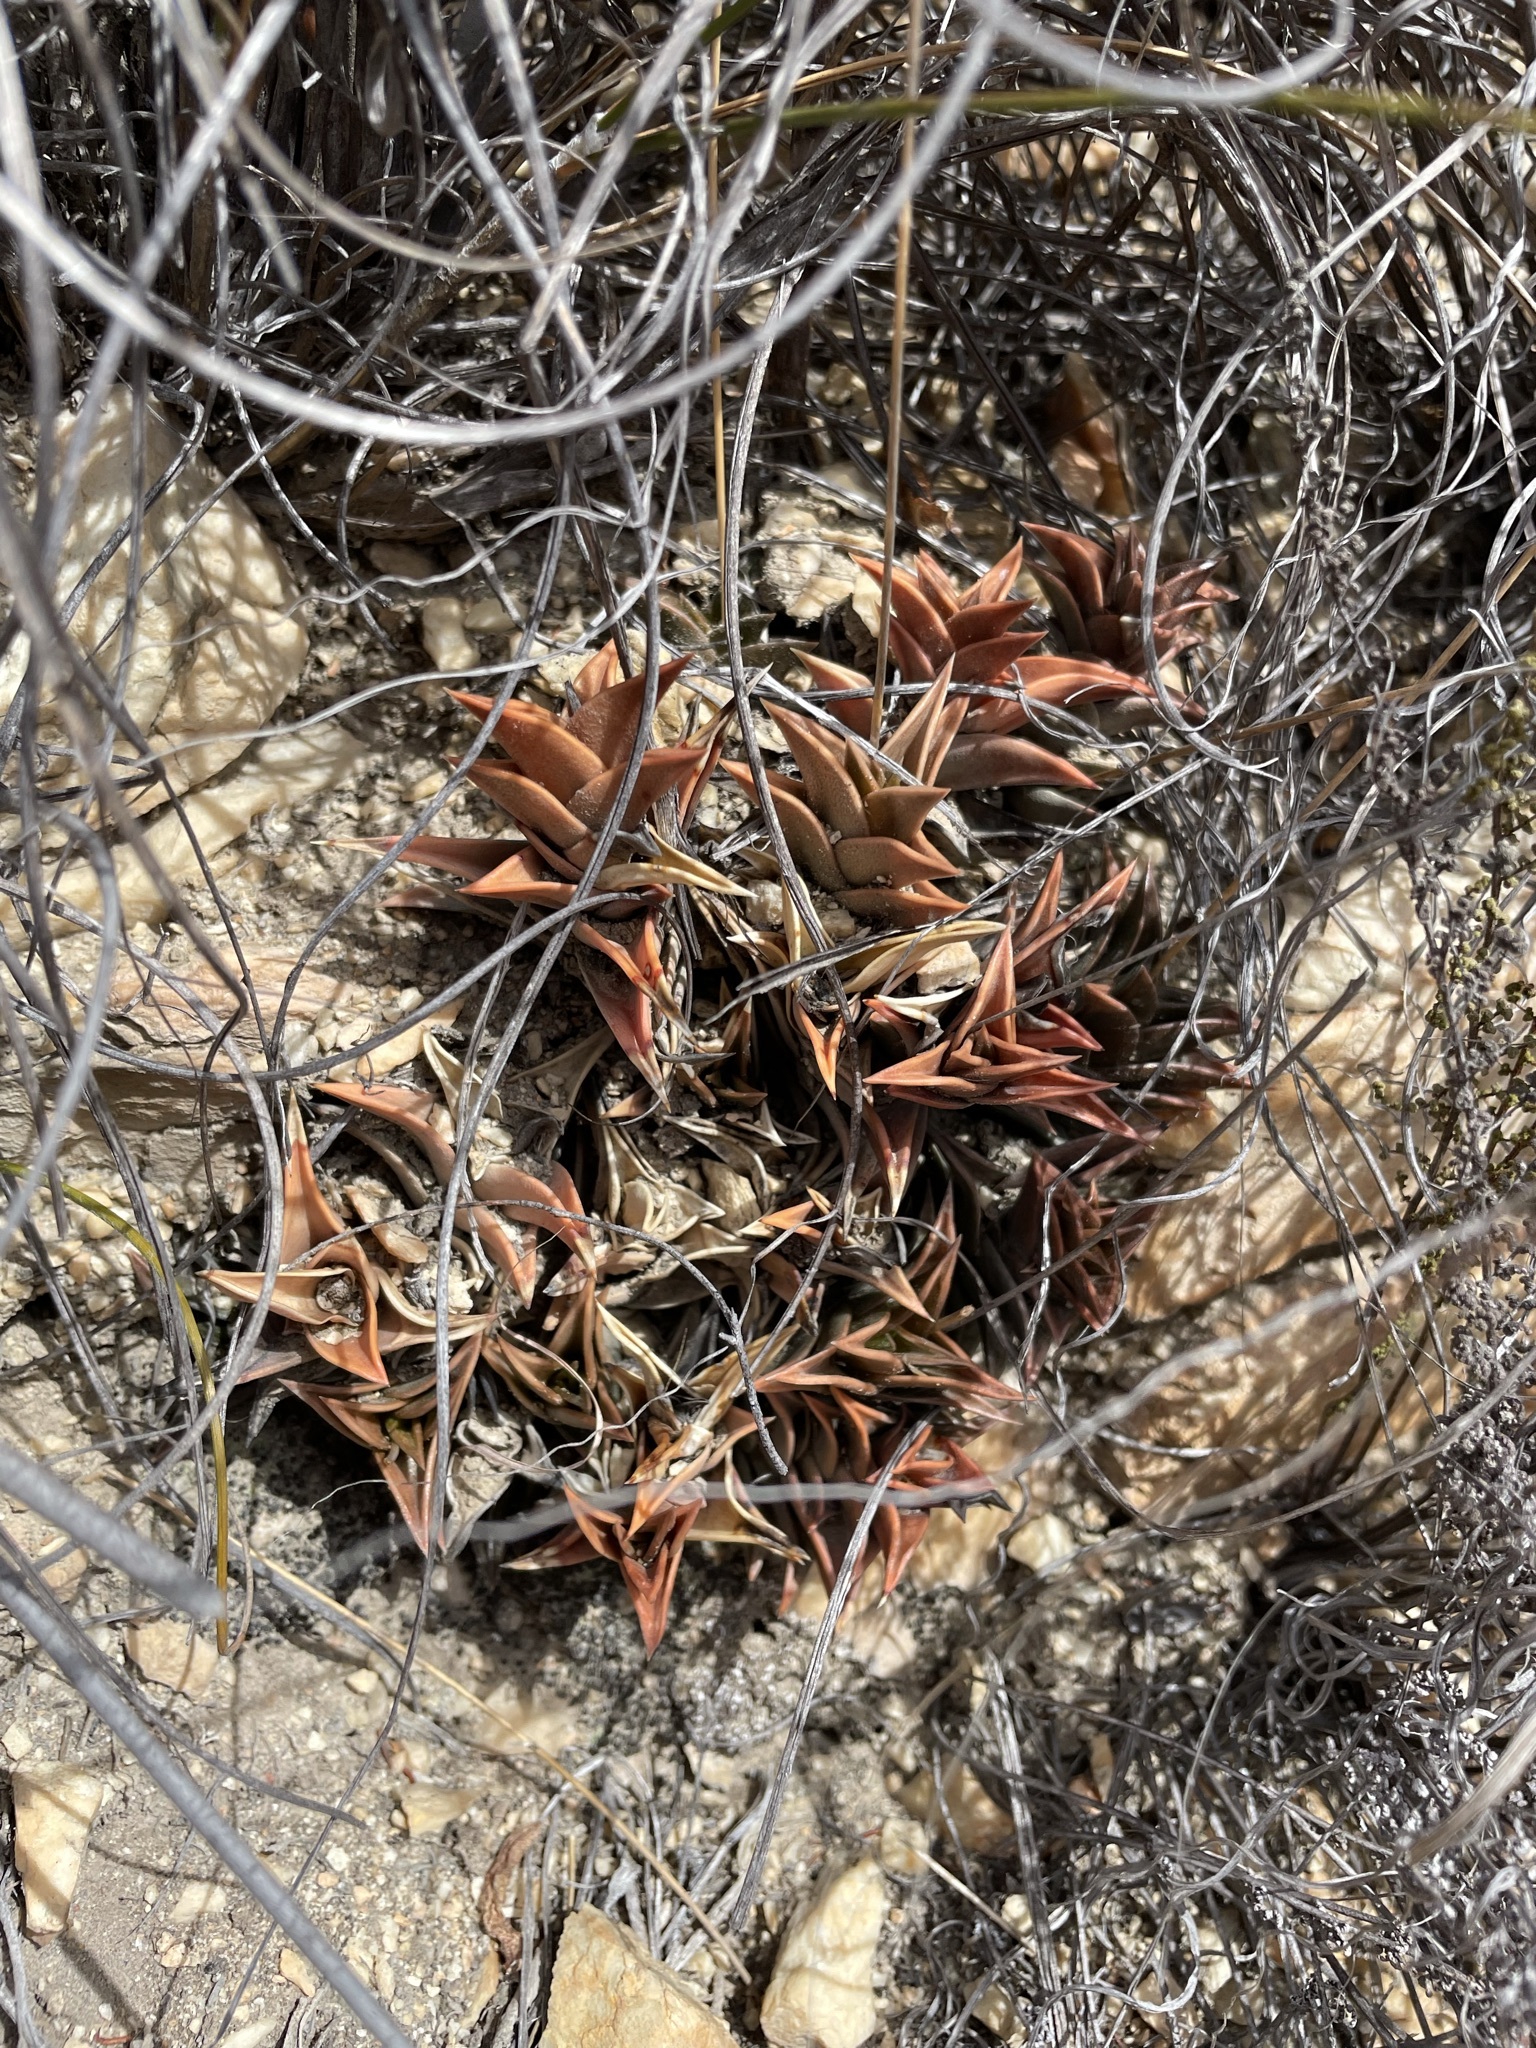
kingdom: Plantae
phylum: Tracheophyta
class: Liliopsida
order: Asparagales
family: Asphodelaceae
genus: Haworthiopsis
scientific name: Haworthiopsis viscosa
